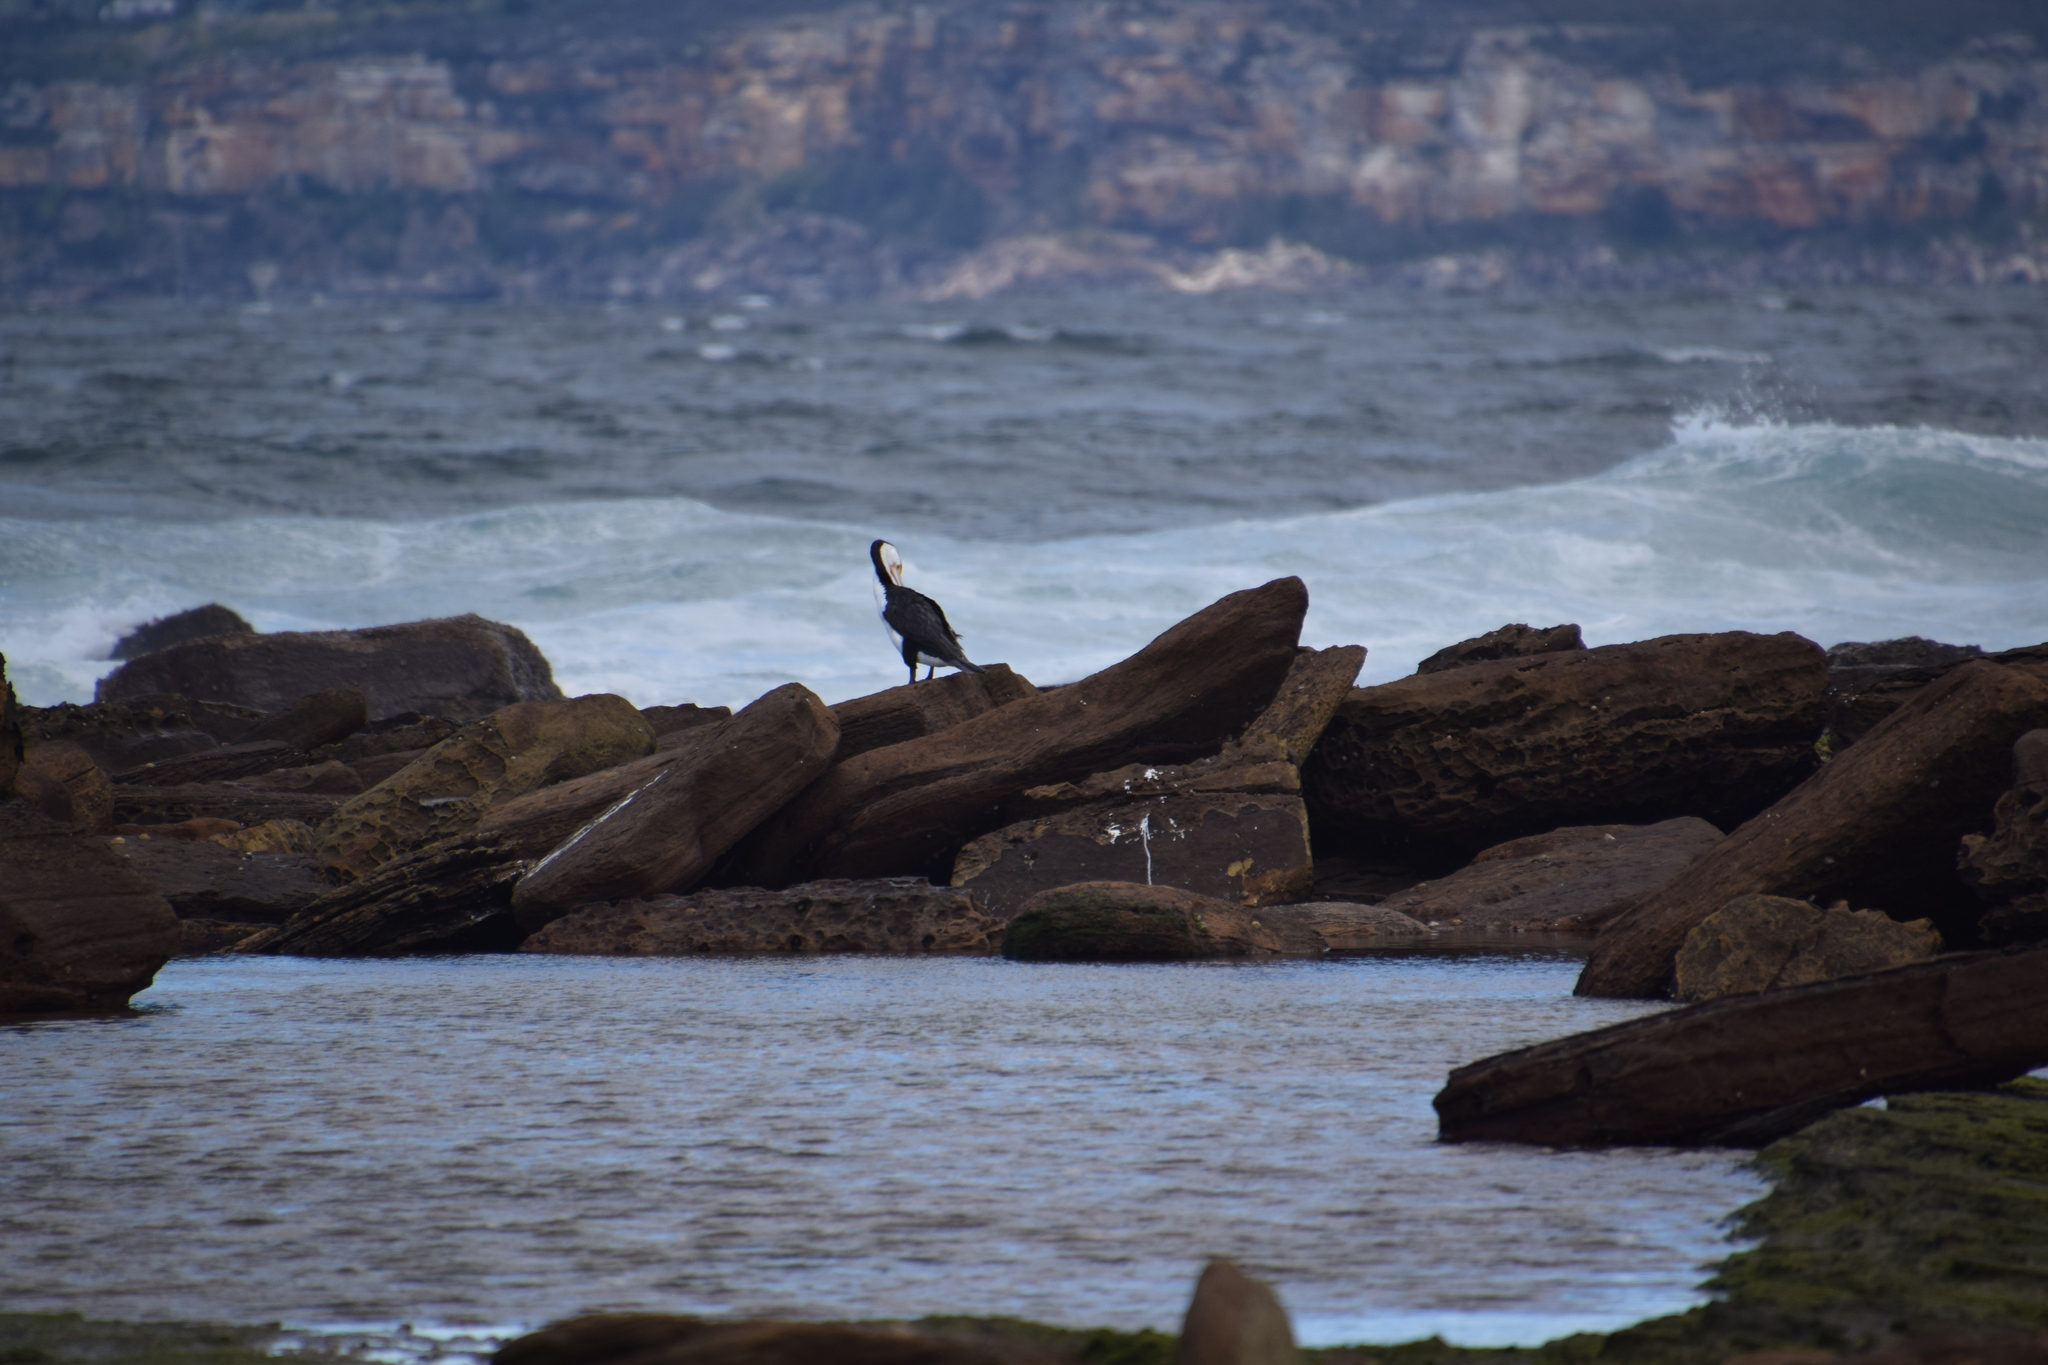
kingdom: Animalia
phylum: Chordata
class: Aves
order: Suliformes
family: Phalacrocoracidae
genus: Phalacrocorax
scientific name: Phalacrocorax varius
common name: Pied cormorant
